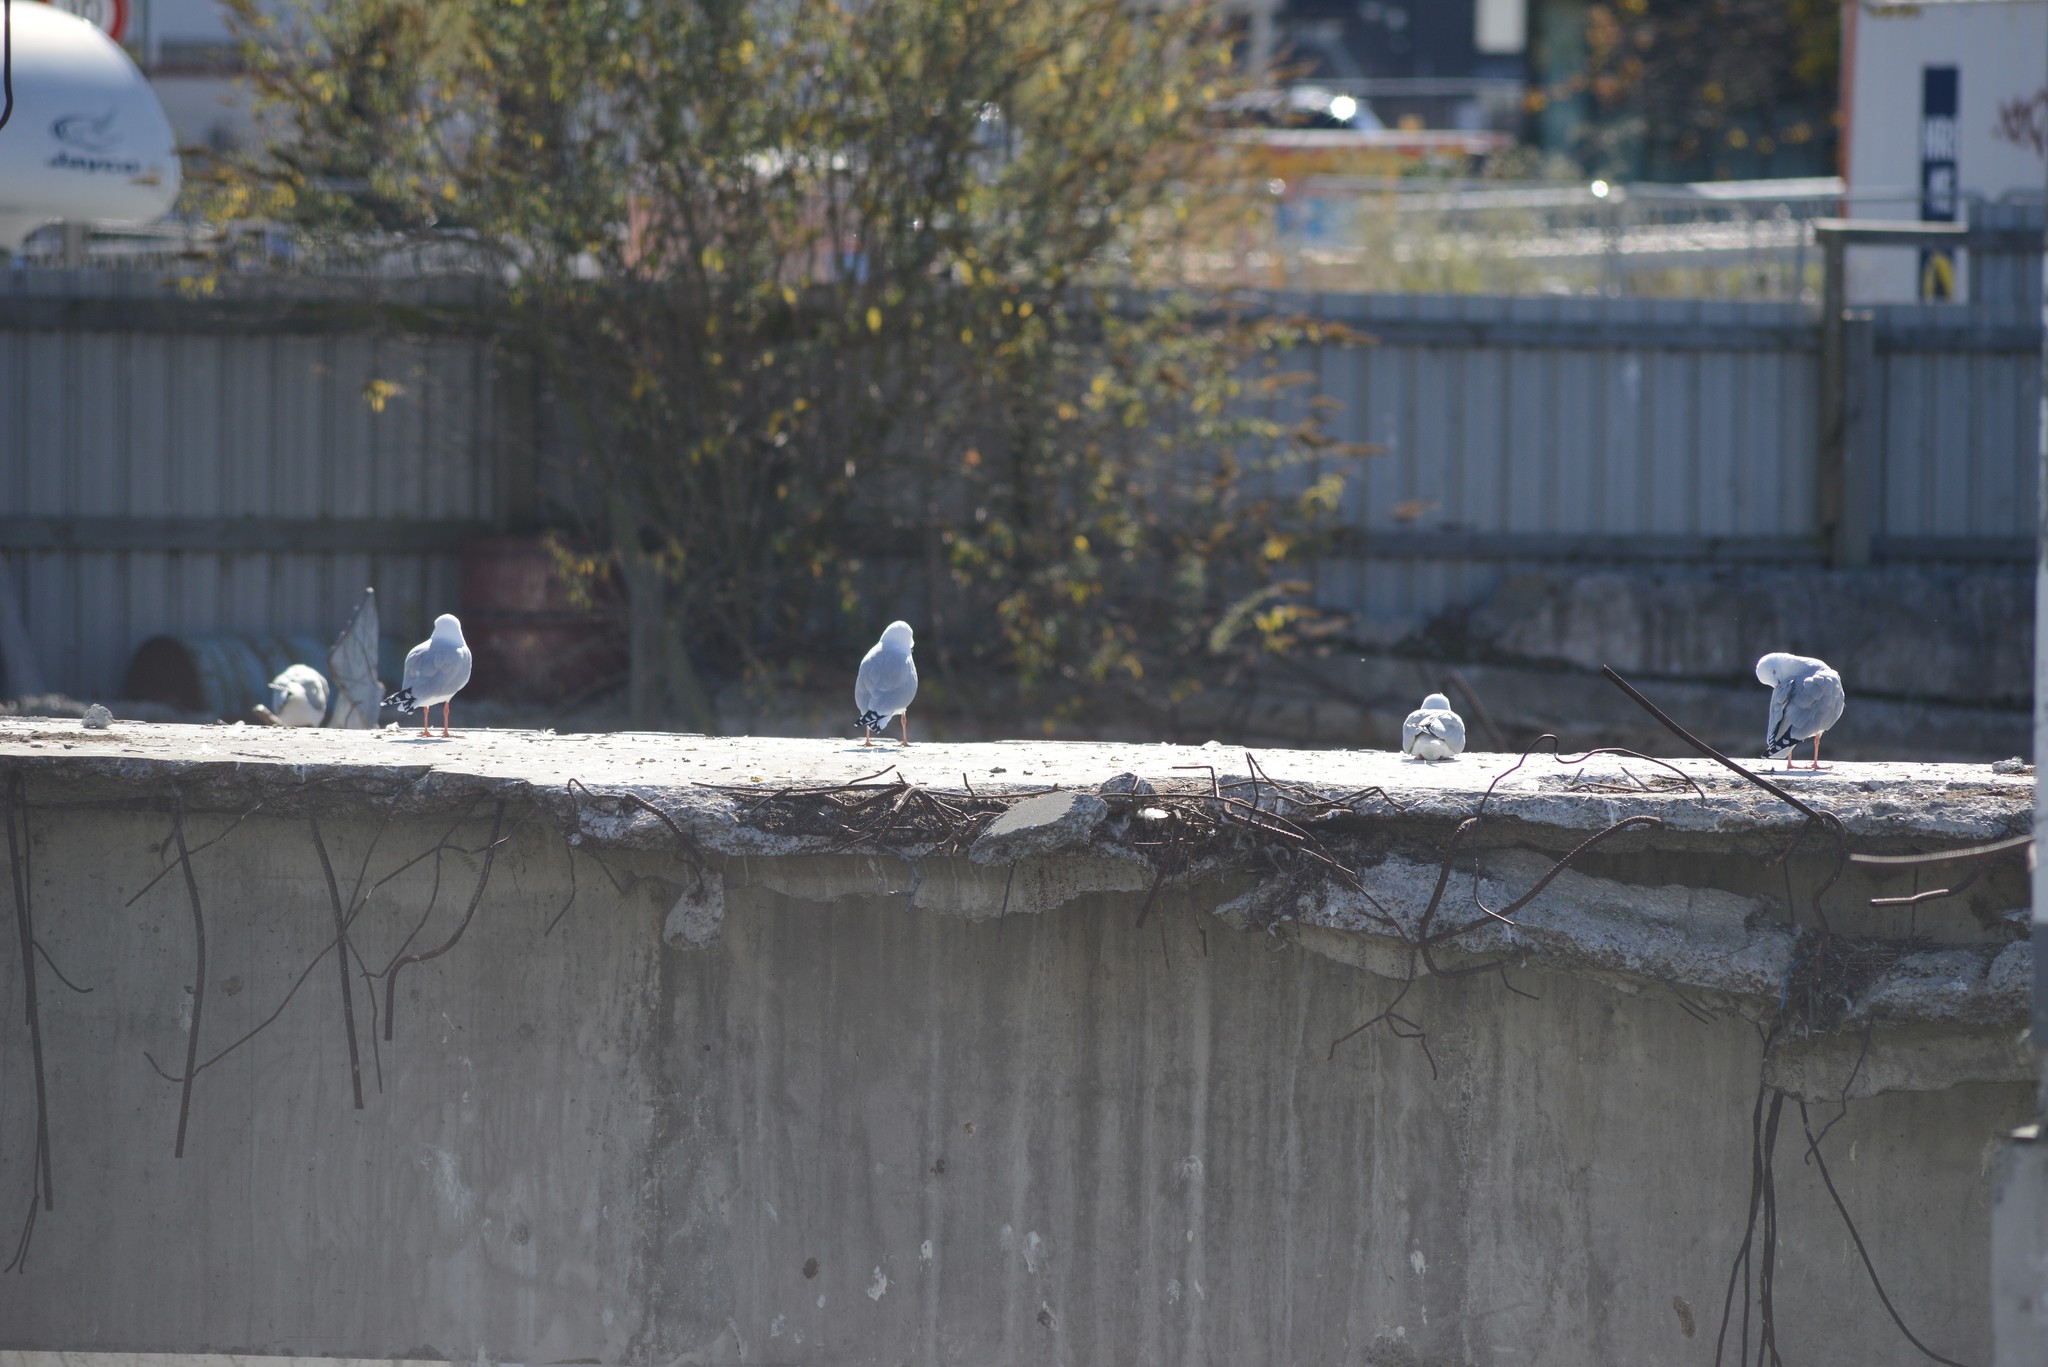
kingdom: Animalia
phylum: Chordata
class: Aves
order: Charadriiformes
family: Laridae
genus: Chroicocephalus
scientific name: Chroicocephalus novaehollandiae
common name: Silver gull
